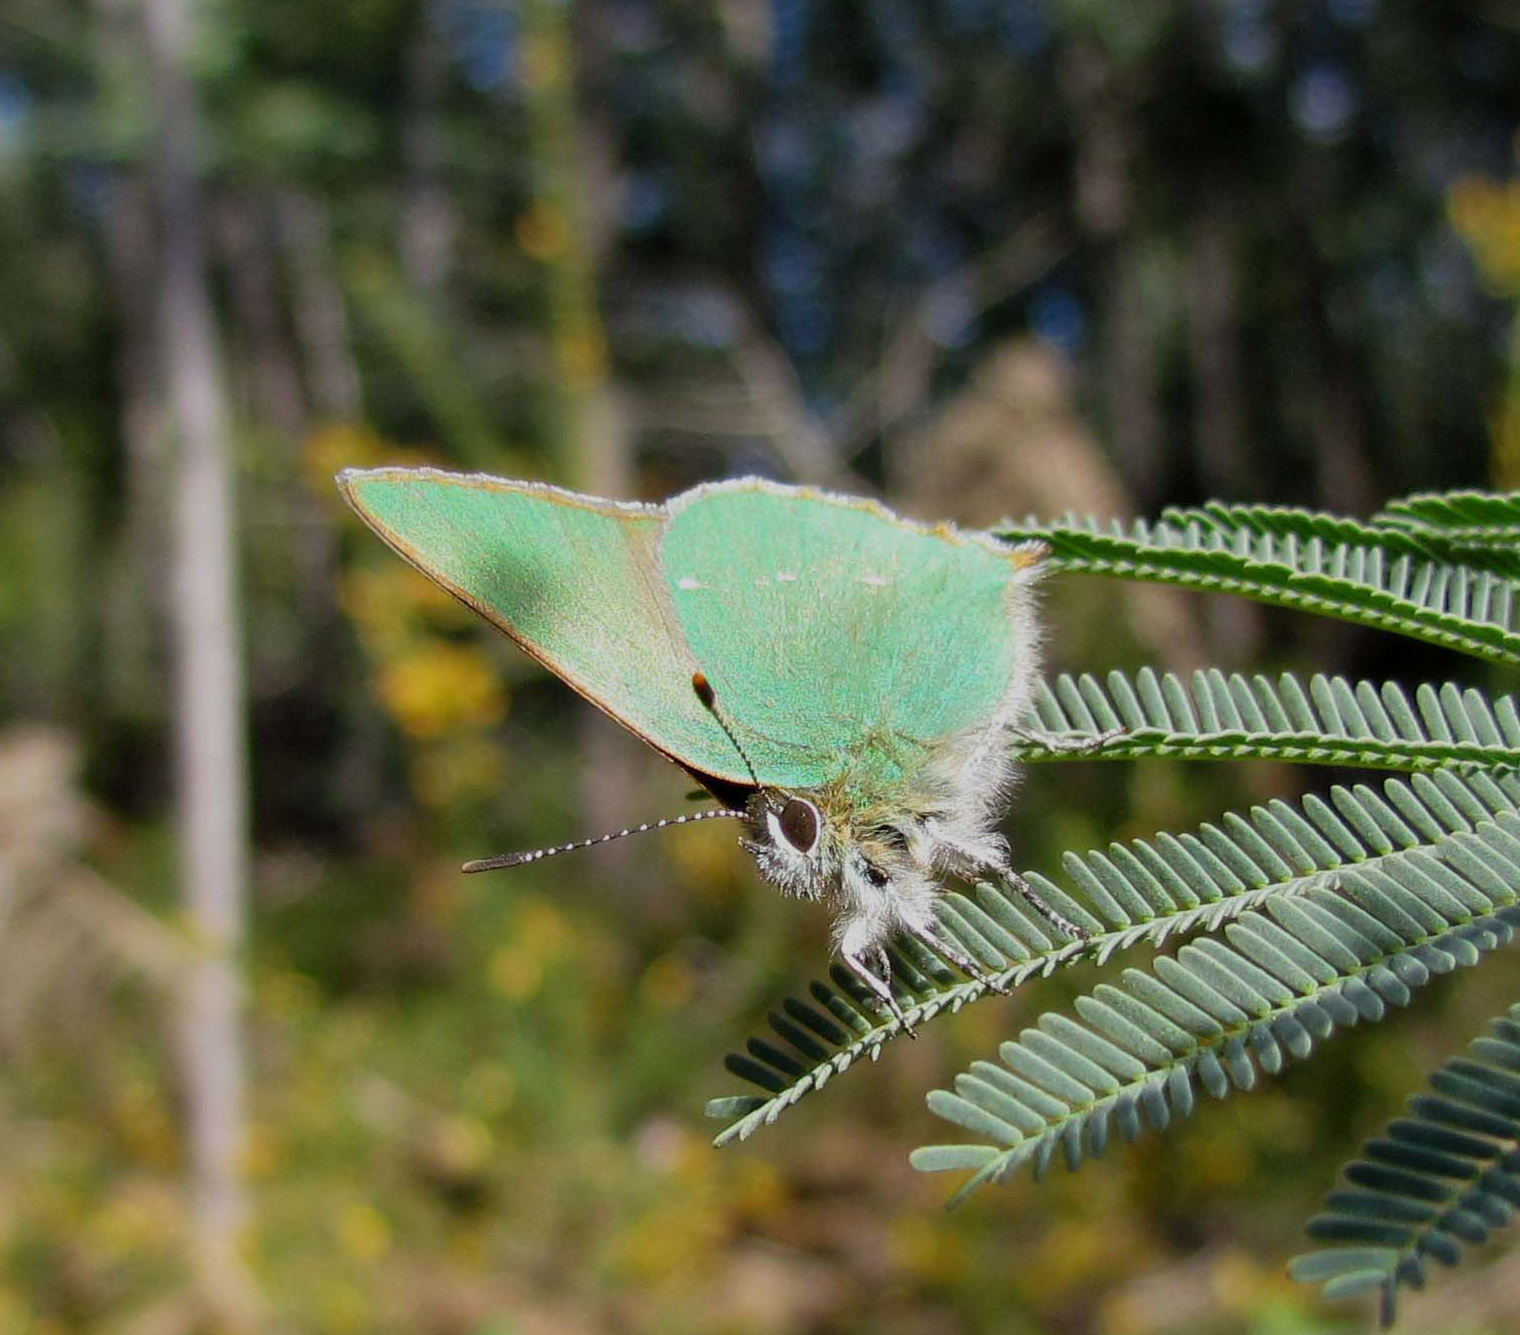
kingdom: Animalia
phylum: Arthropoda
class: Insecta
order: Lepidoptera
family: Lycaenidae
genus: Callophrys
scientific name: Callophrys rubi
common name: Green hairstreak
